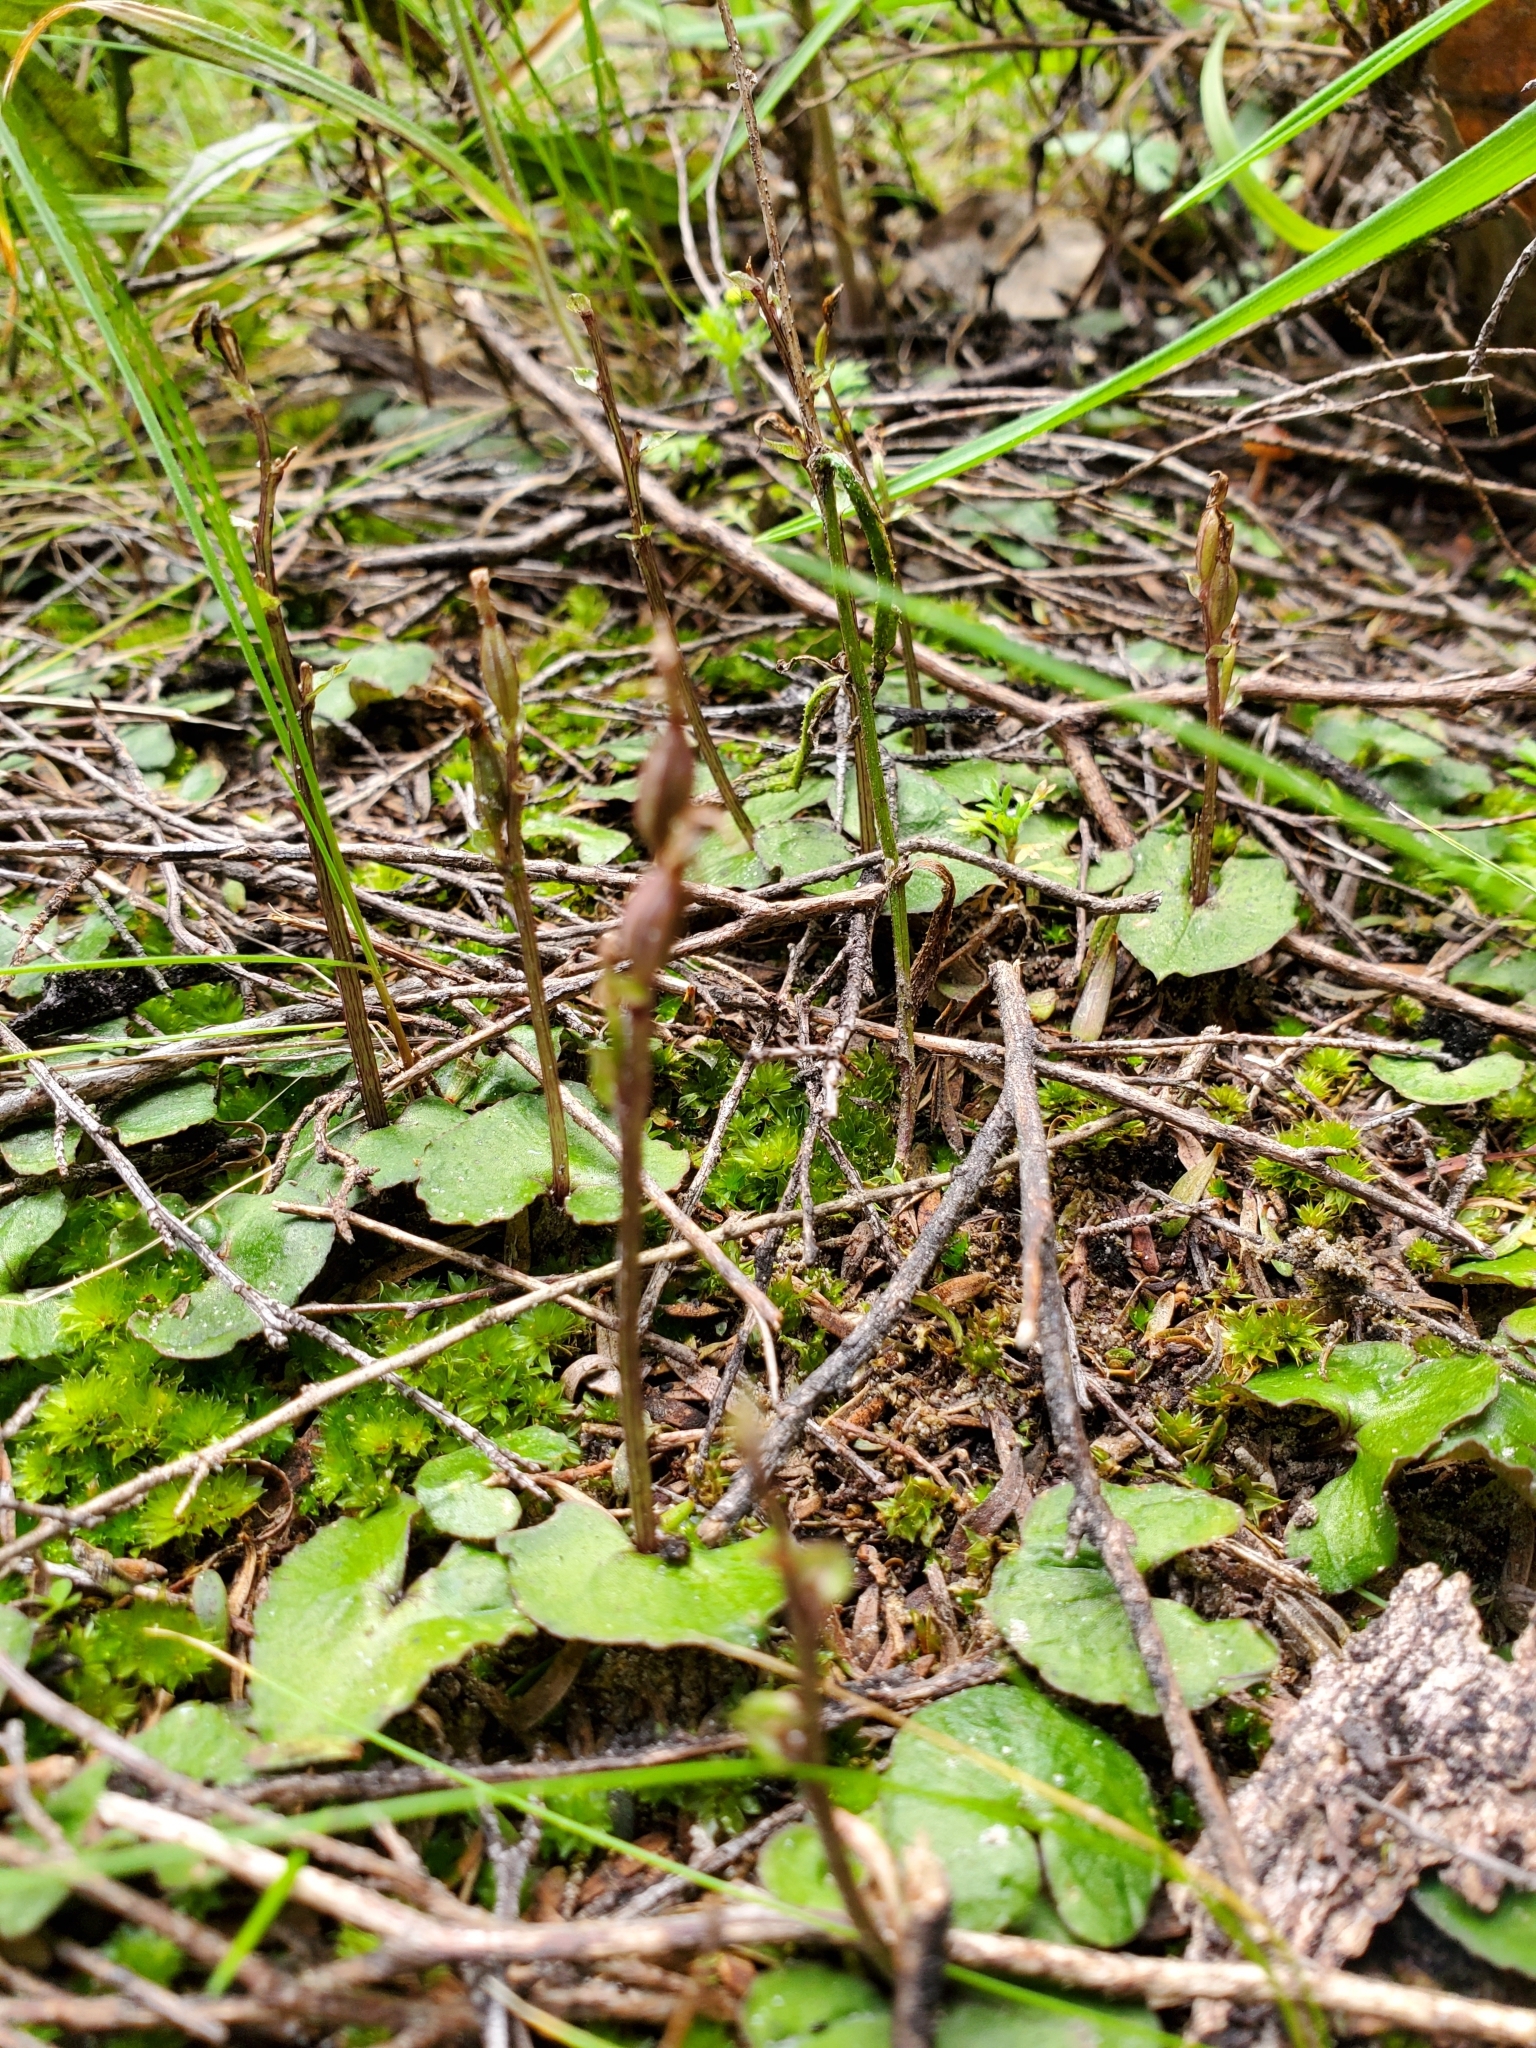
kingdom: Plantae
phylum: Tracheophyta
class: Liliopsida
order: Asparagales
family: Orchidaceae
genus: Acianthus
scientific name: Acianthus sinclairii
